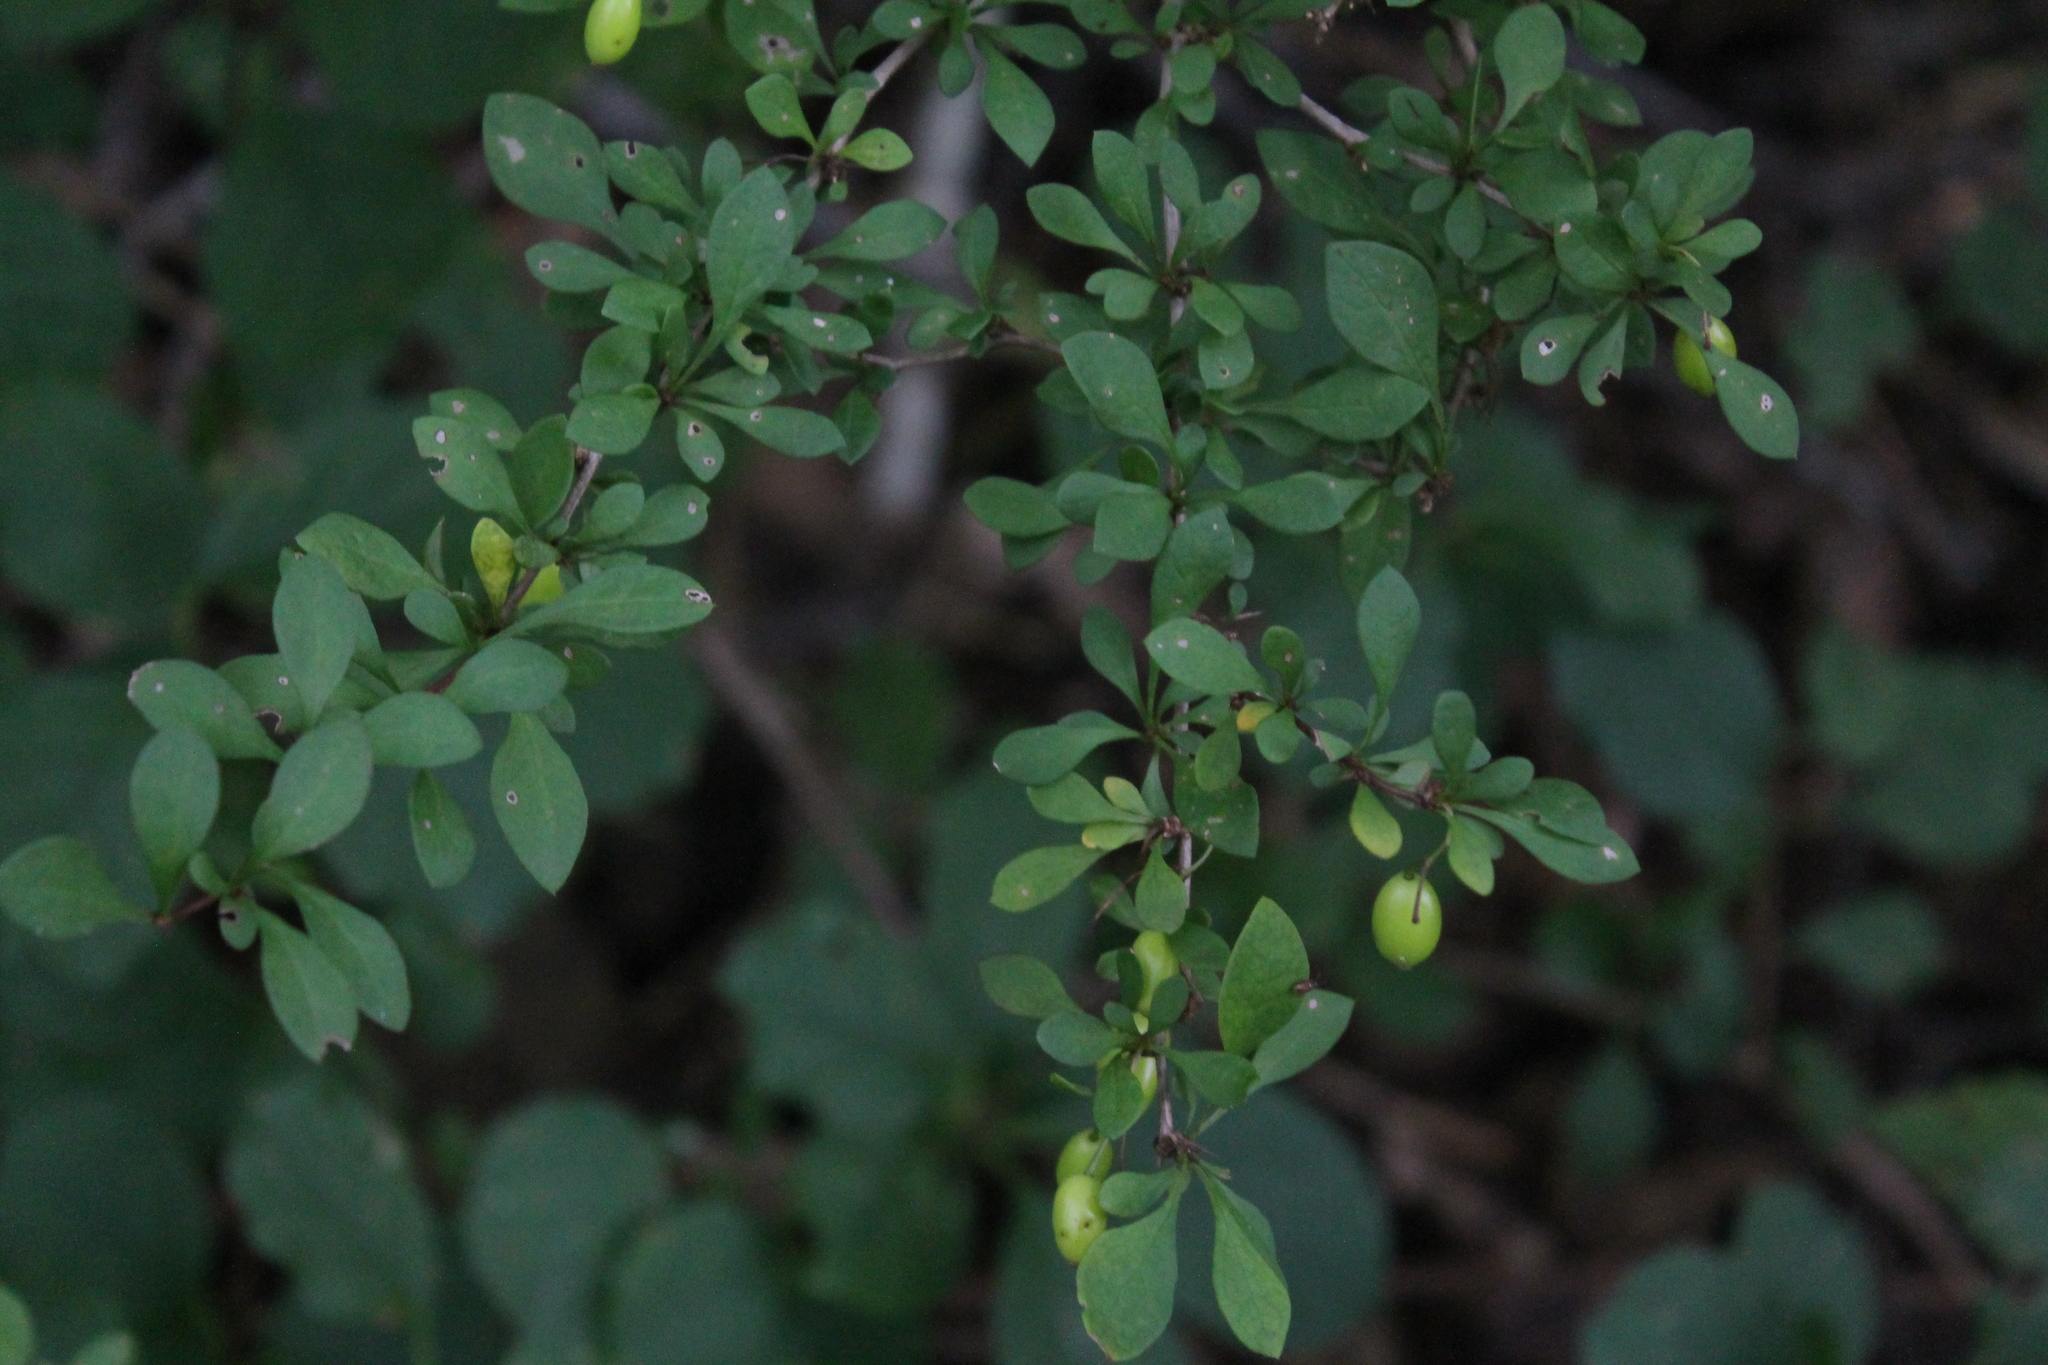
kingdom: Plantae
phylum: Tracheophyta
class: Magnoliopsida
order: Ranunculales
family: Berberidaceae
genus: Berberis
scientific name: Berberis thunbergii
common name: Japanese barberry
